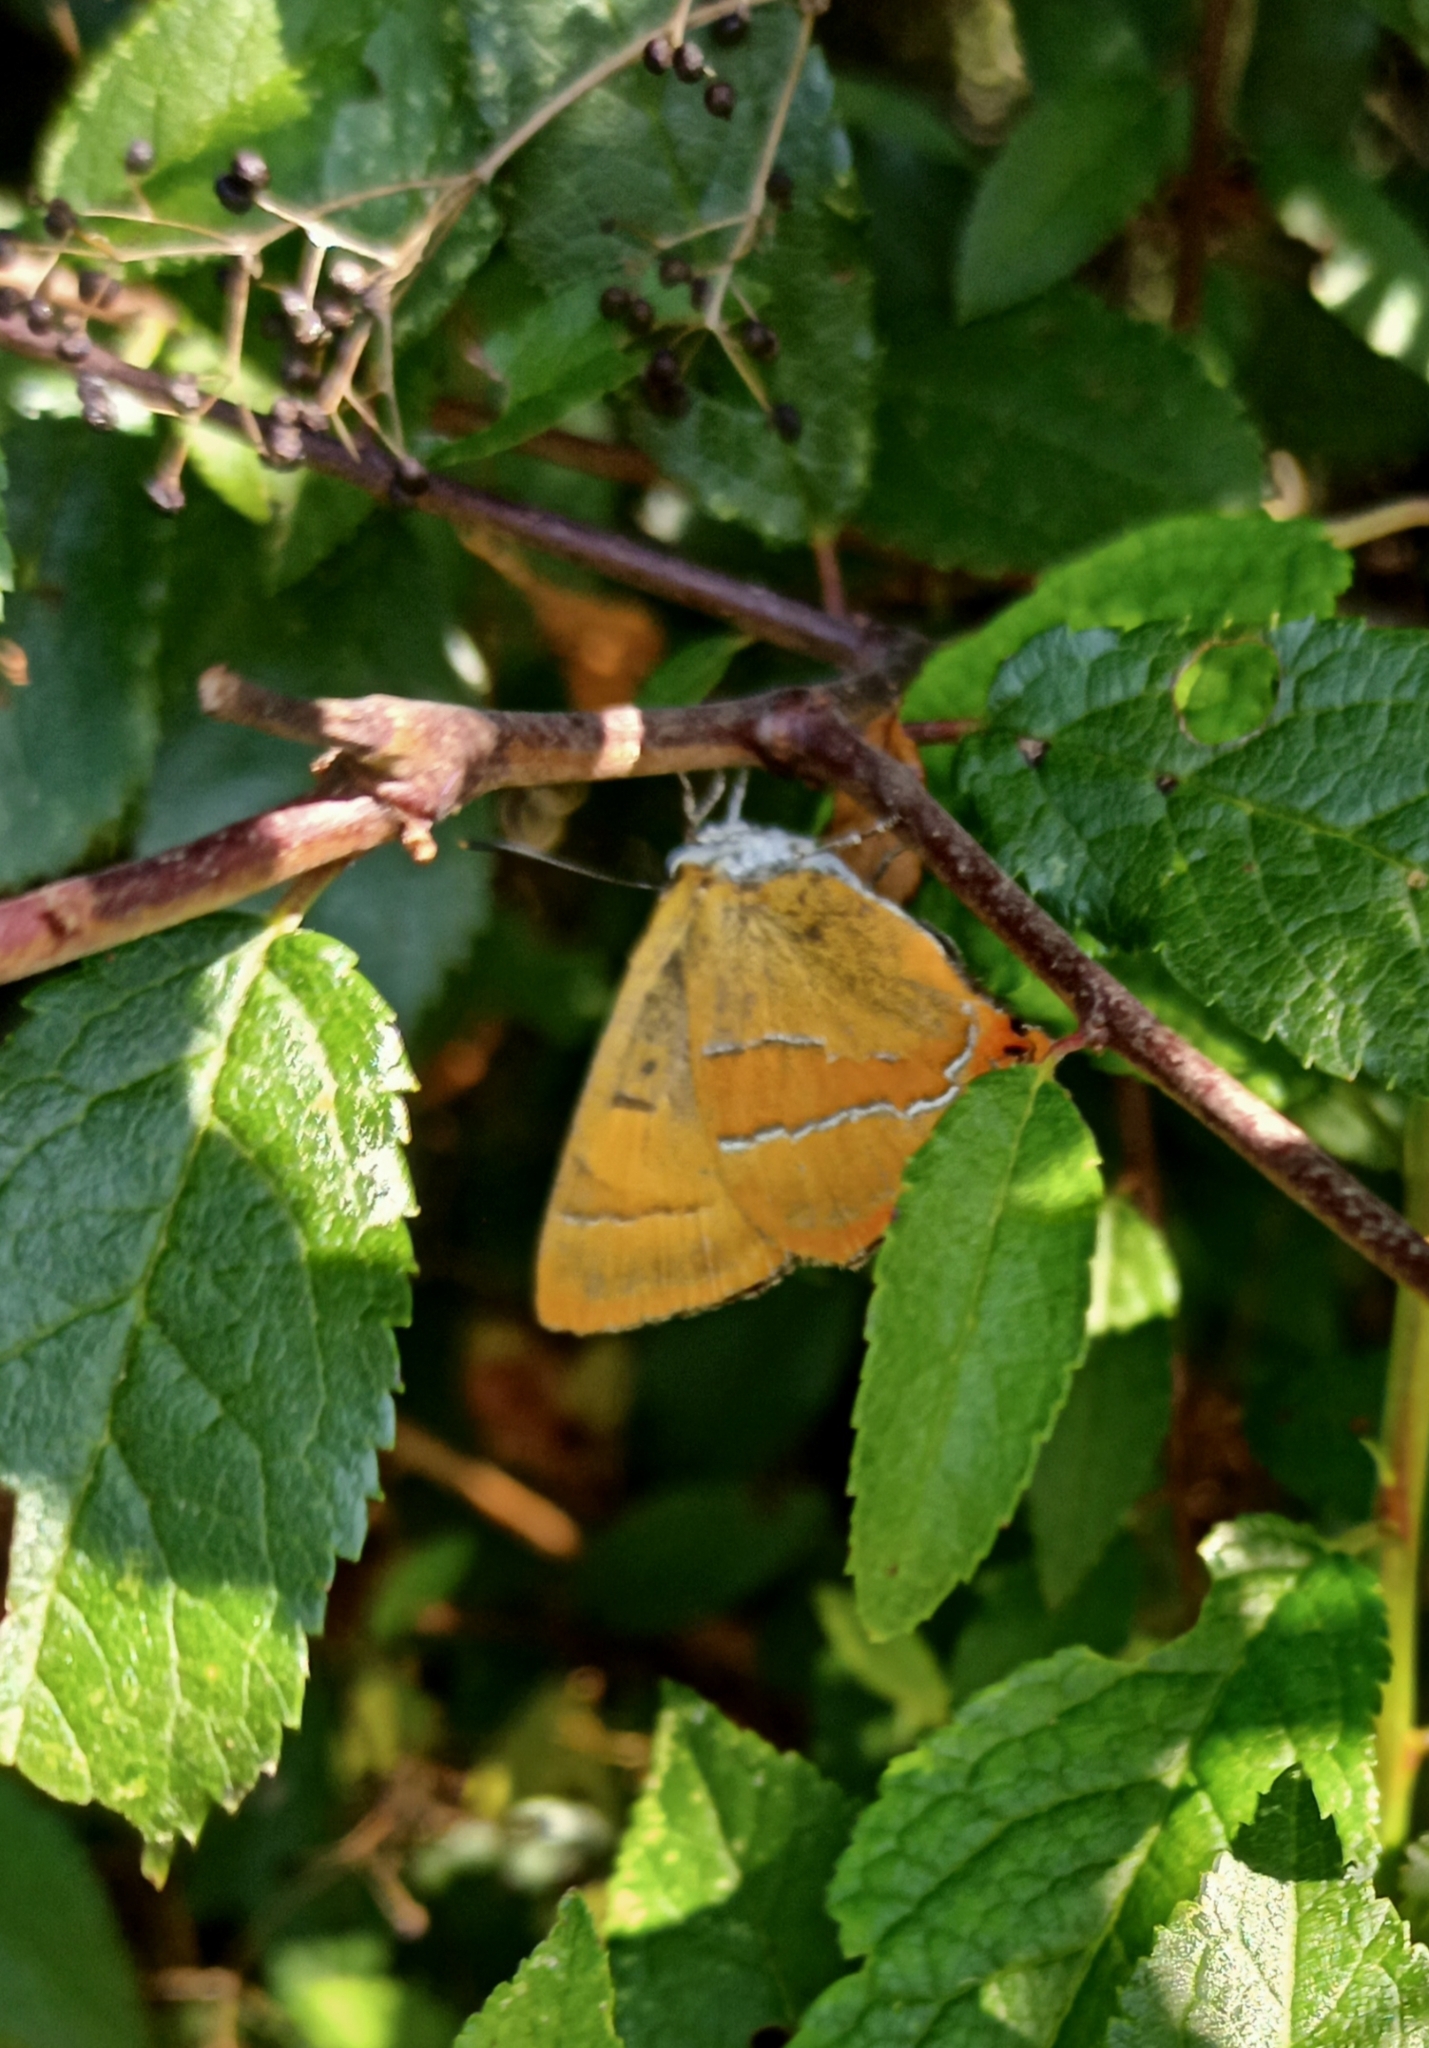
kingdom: Animalia
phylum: Arthropoda
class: Insecta
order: Lepidoptera
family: Lycaenidae
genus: Thecla
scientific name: Thecla betulae
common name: Brown hairstreak
